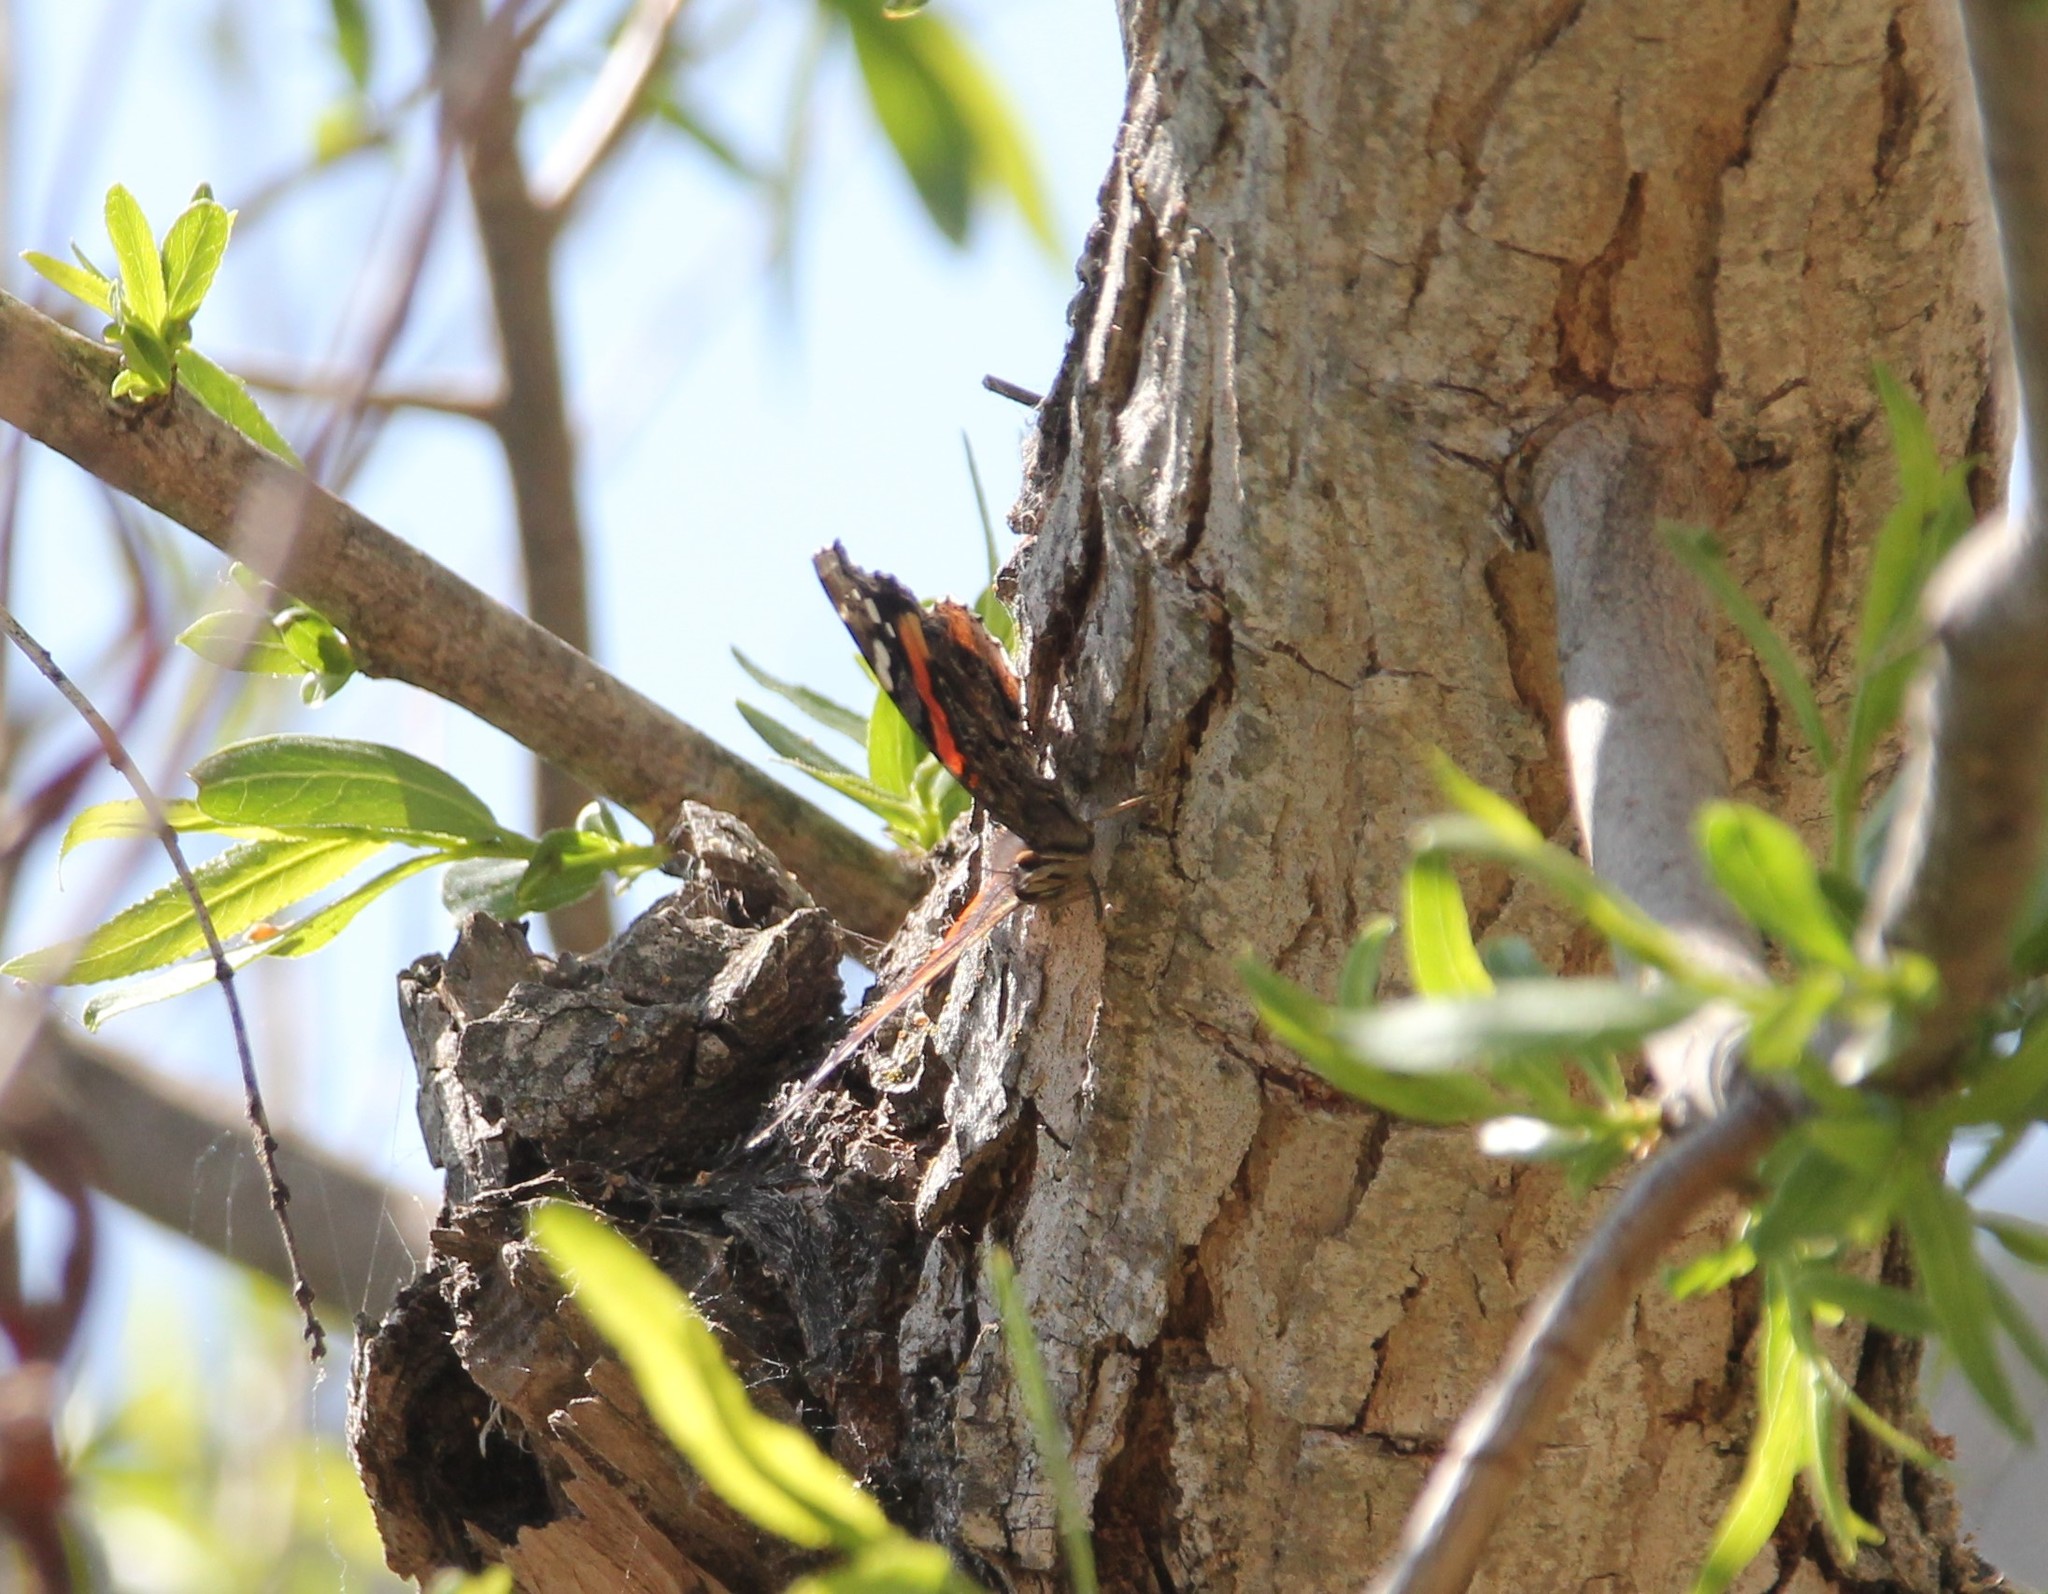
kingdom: Animalia
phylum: Arthropoda
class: Insecta
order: Lepidoptera
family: Nymphalidae
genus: Vanessa
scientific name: Vanessa atalanta
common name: Red admiral
